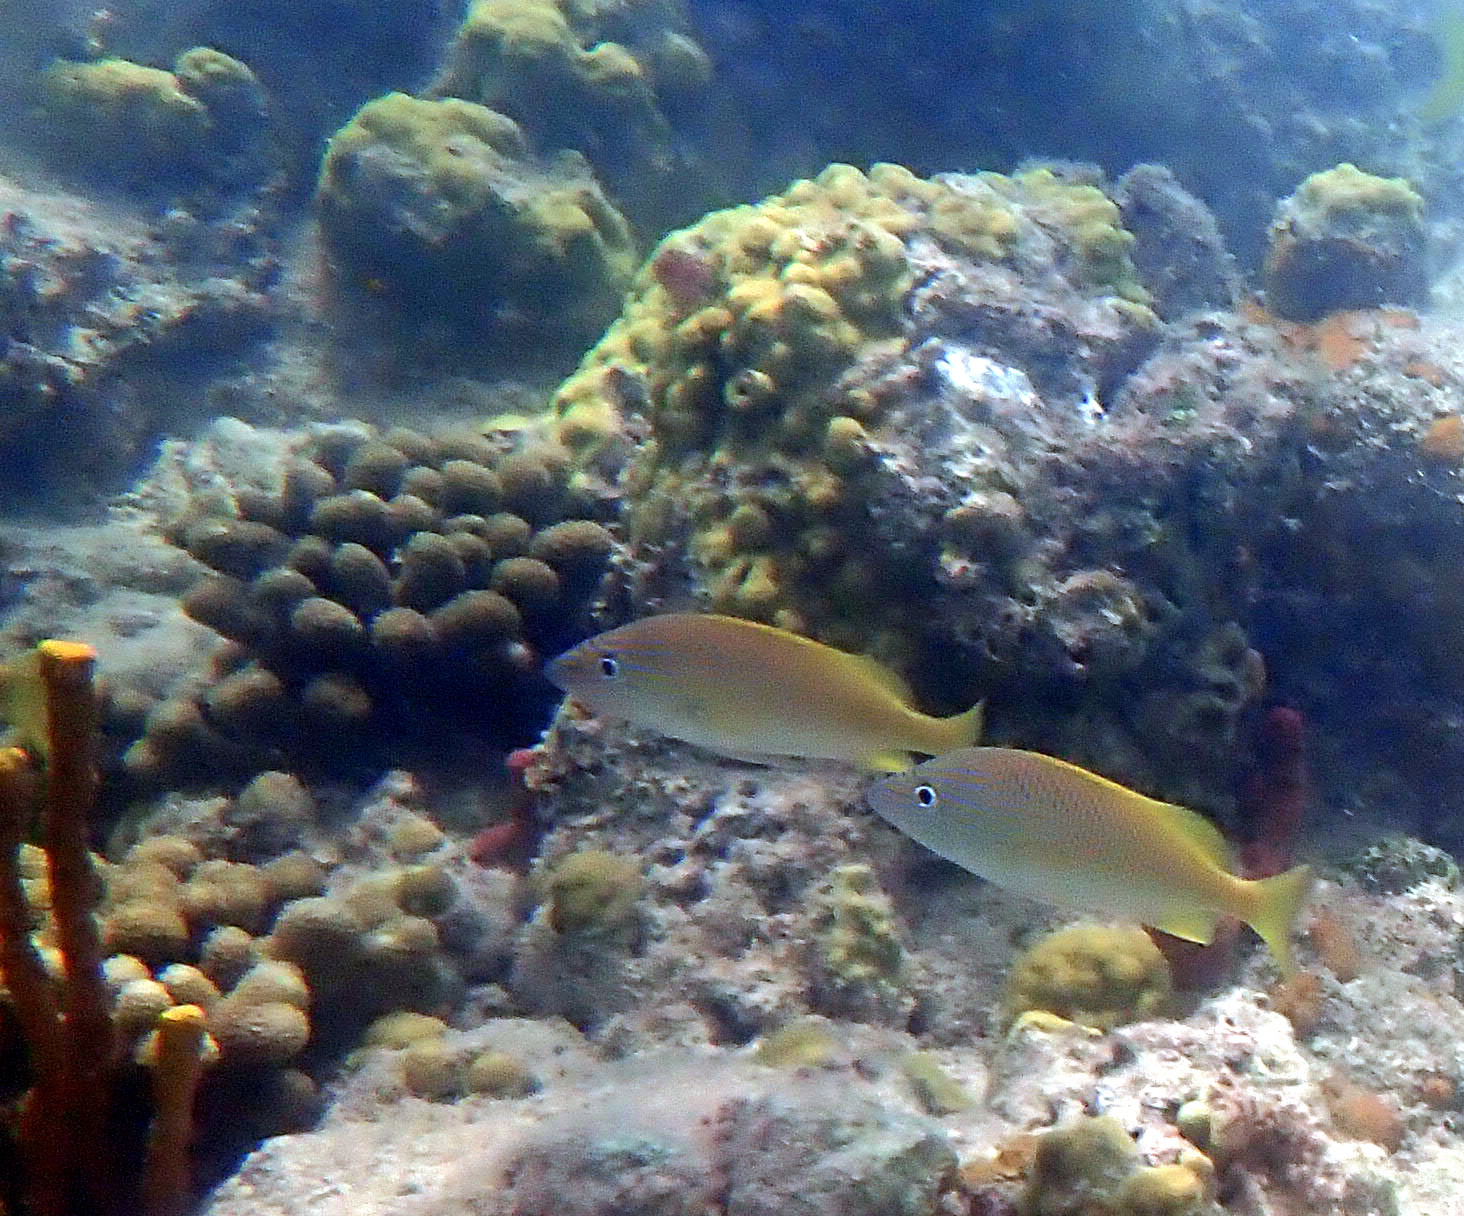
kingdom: Animalia
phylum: Chordata
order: Perciformes
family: Haemulidae
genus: Haemulon
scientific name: Haemulon plumierii
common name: White grunt
